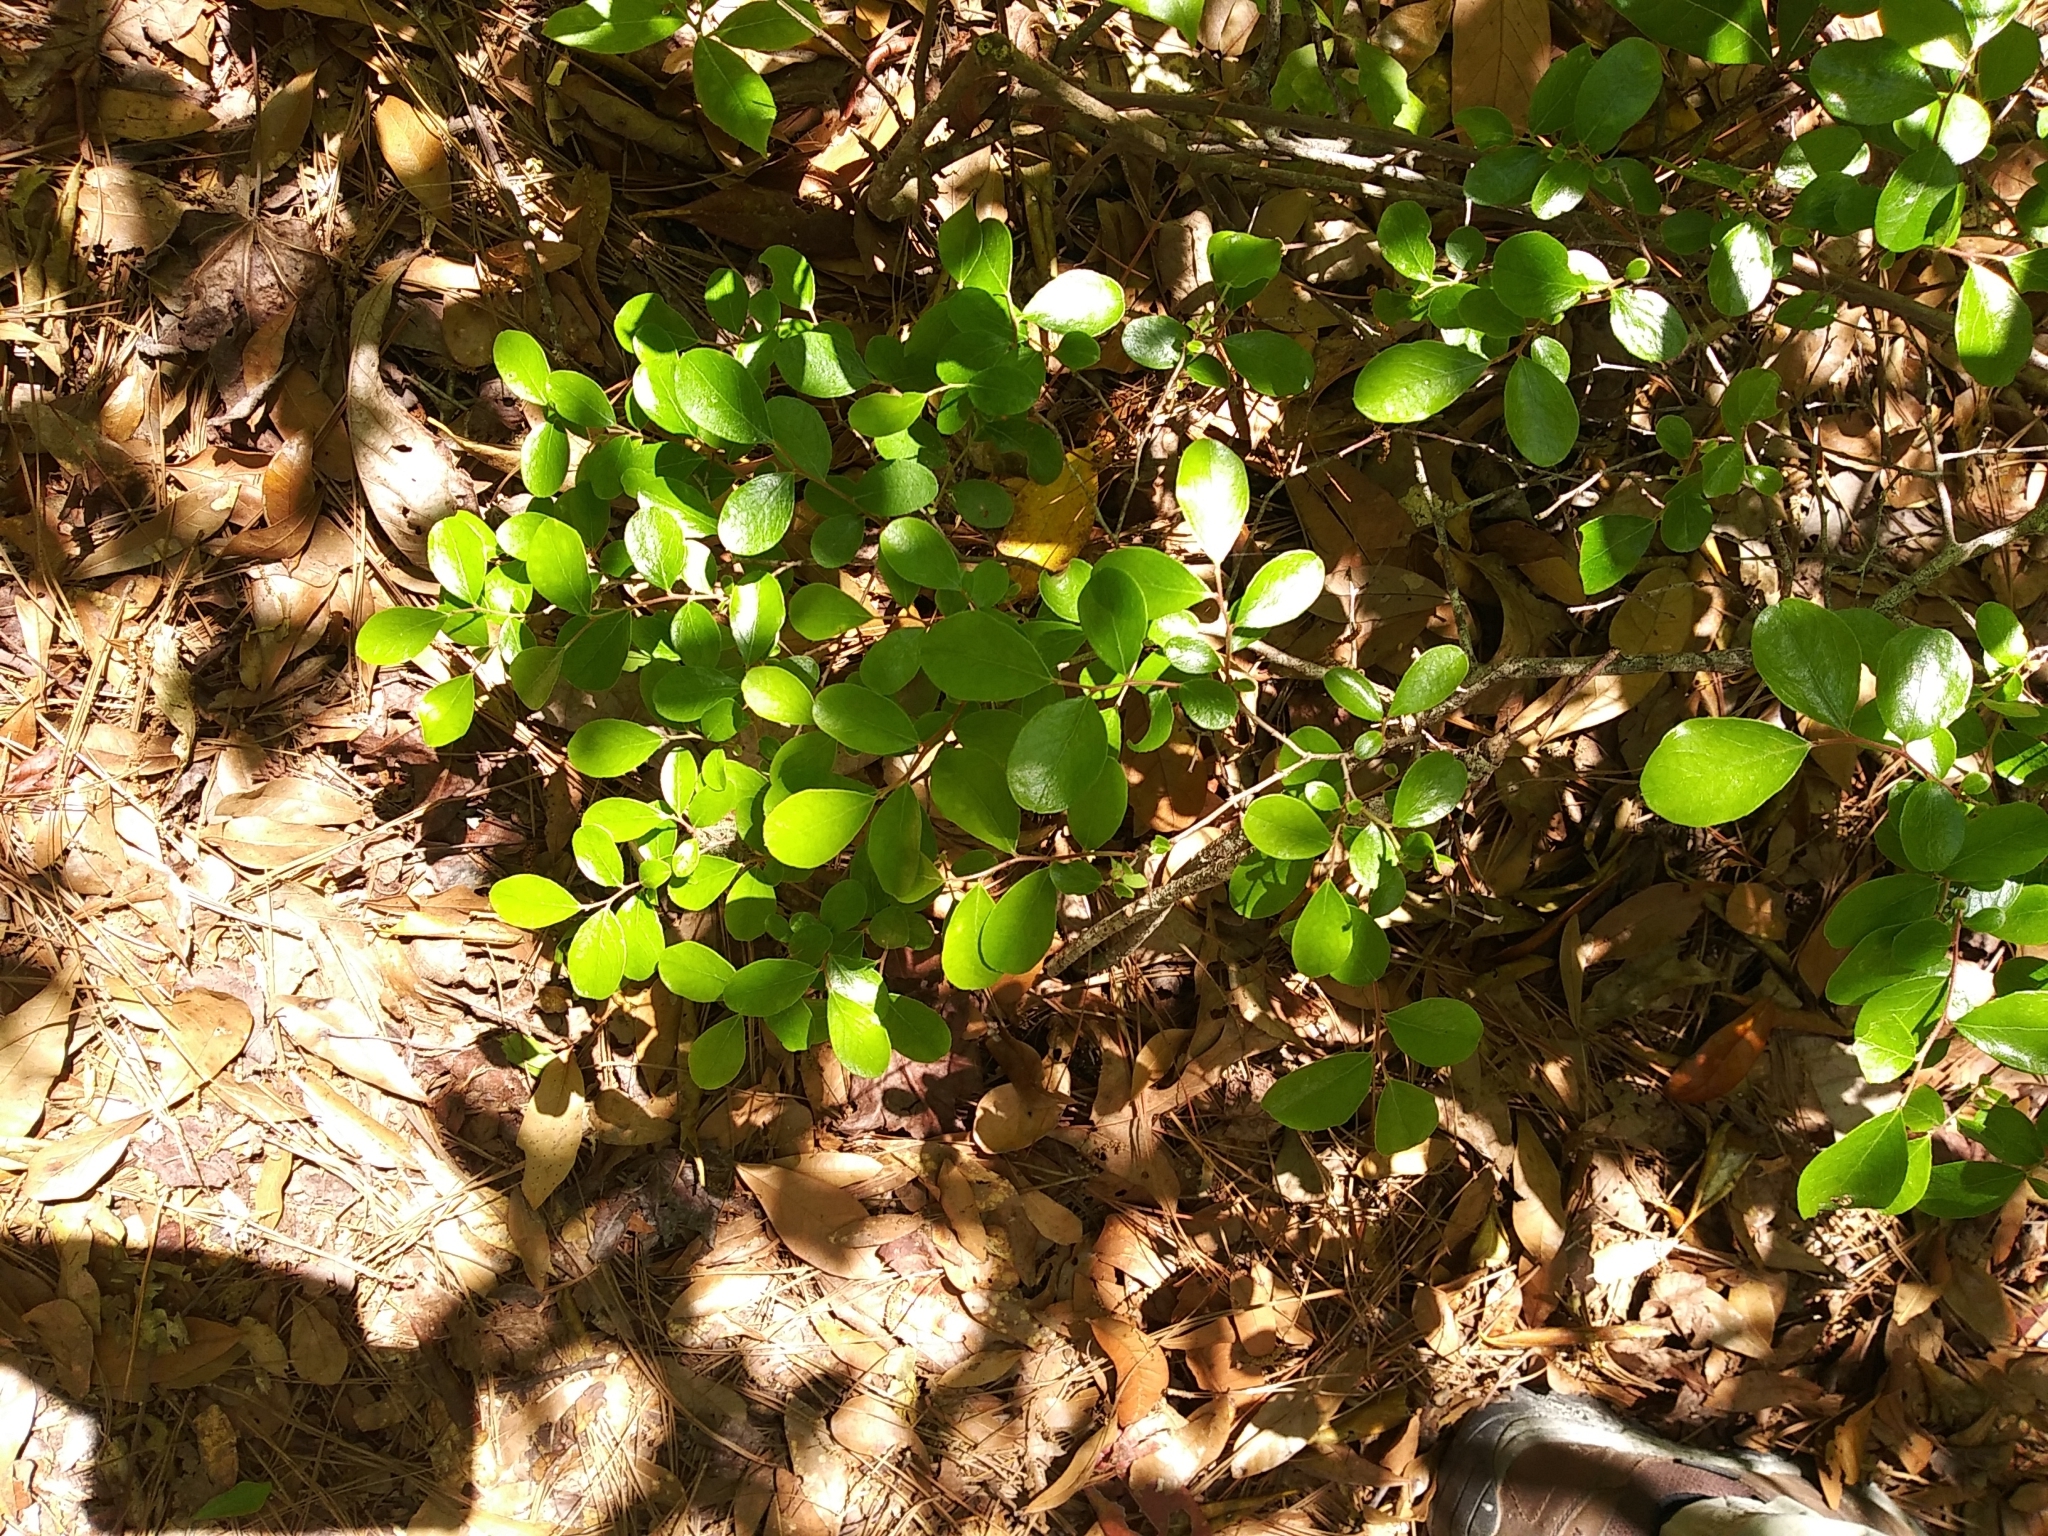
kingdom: Plantae
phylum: Tracheophyta
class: Magnoliopsida
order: Ericales
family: Ericaceae
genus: Vaccinium
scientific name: Vaccinium arboreum
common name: Farkleberry
